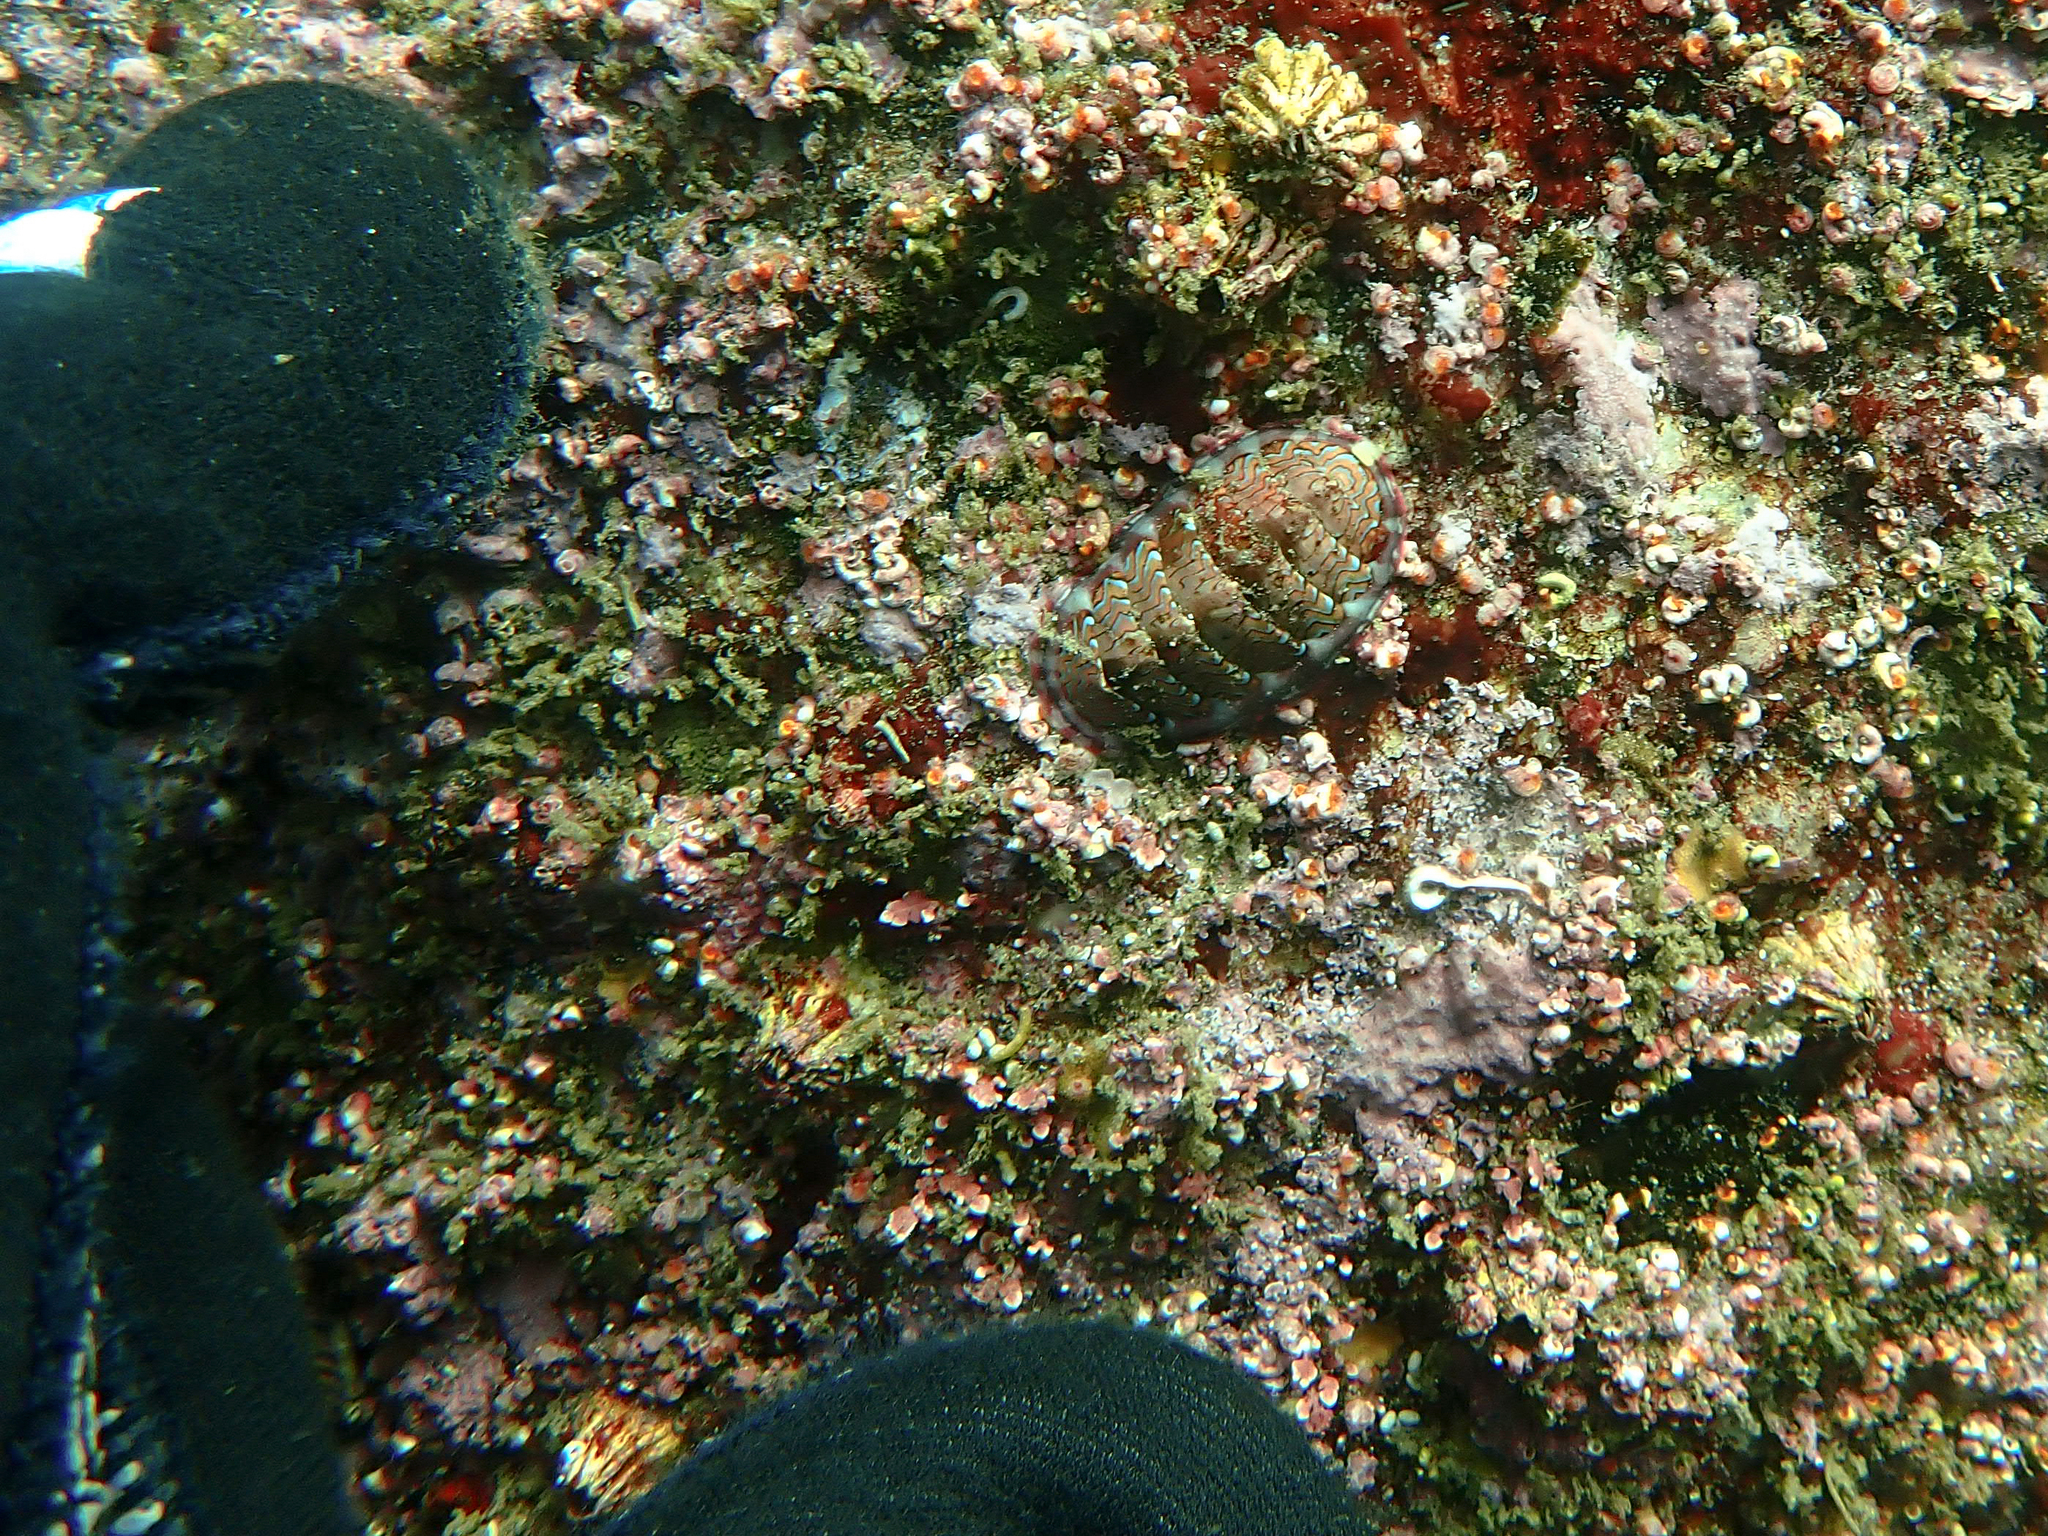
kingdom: Animalia
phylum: Mollusca
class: Polyplacophora
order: Chitonida
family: Tonicellidae
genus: Tonicella
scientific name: Tonicella lokii
